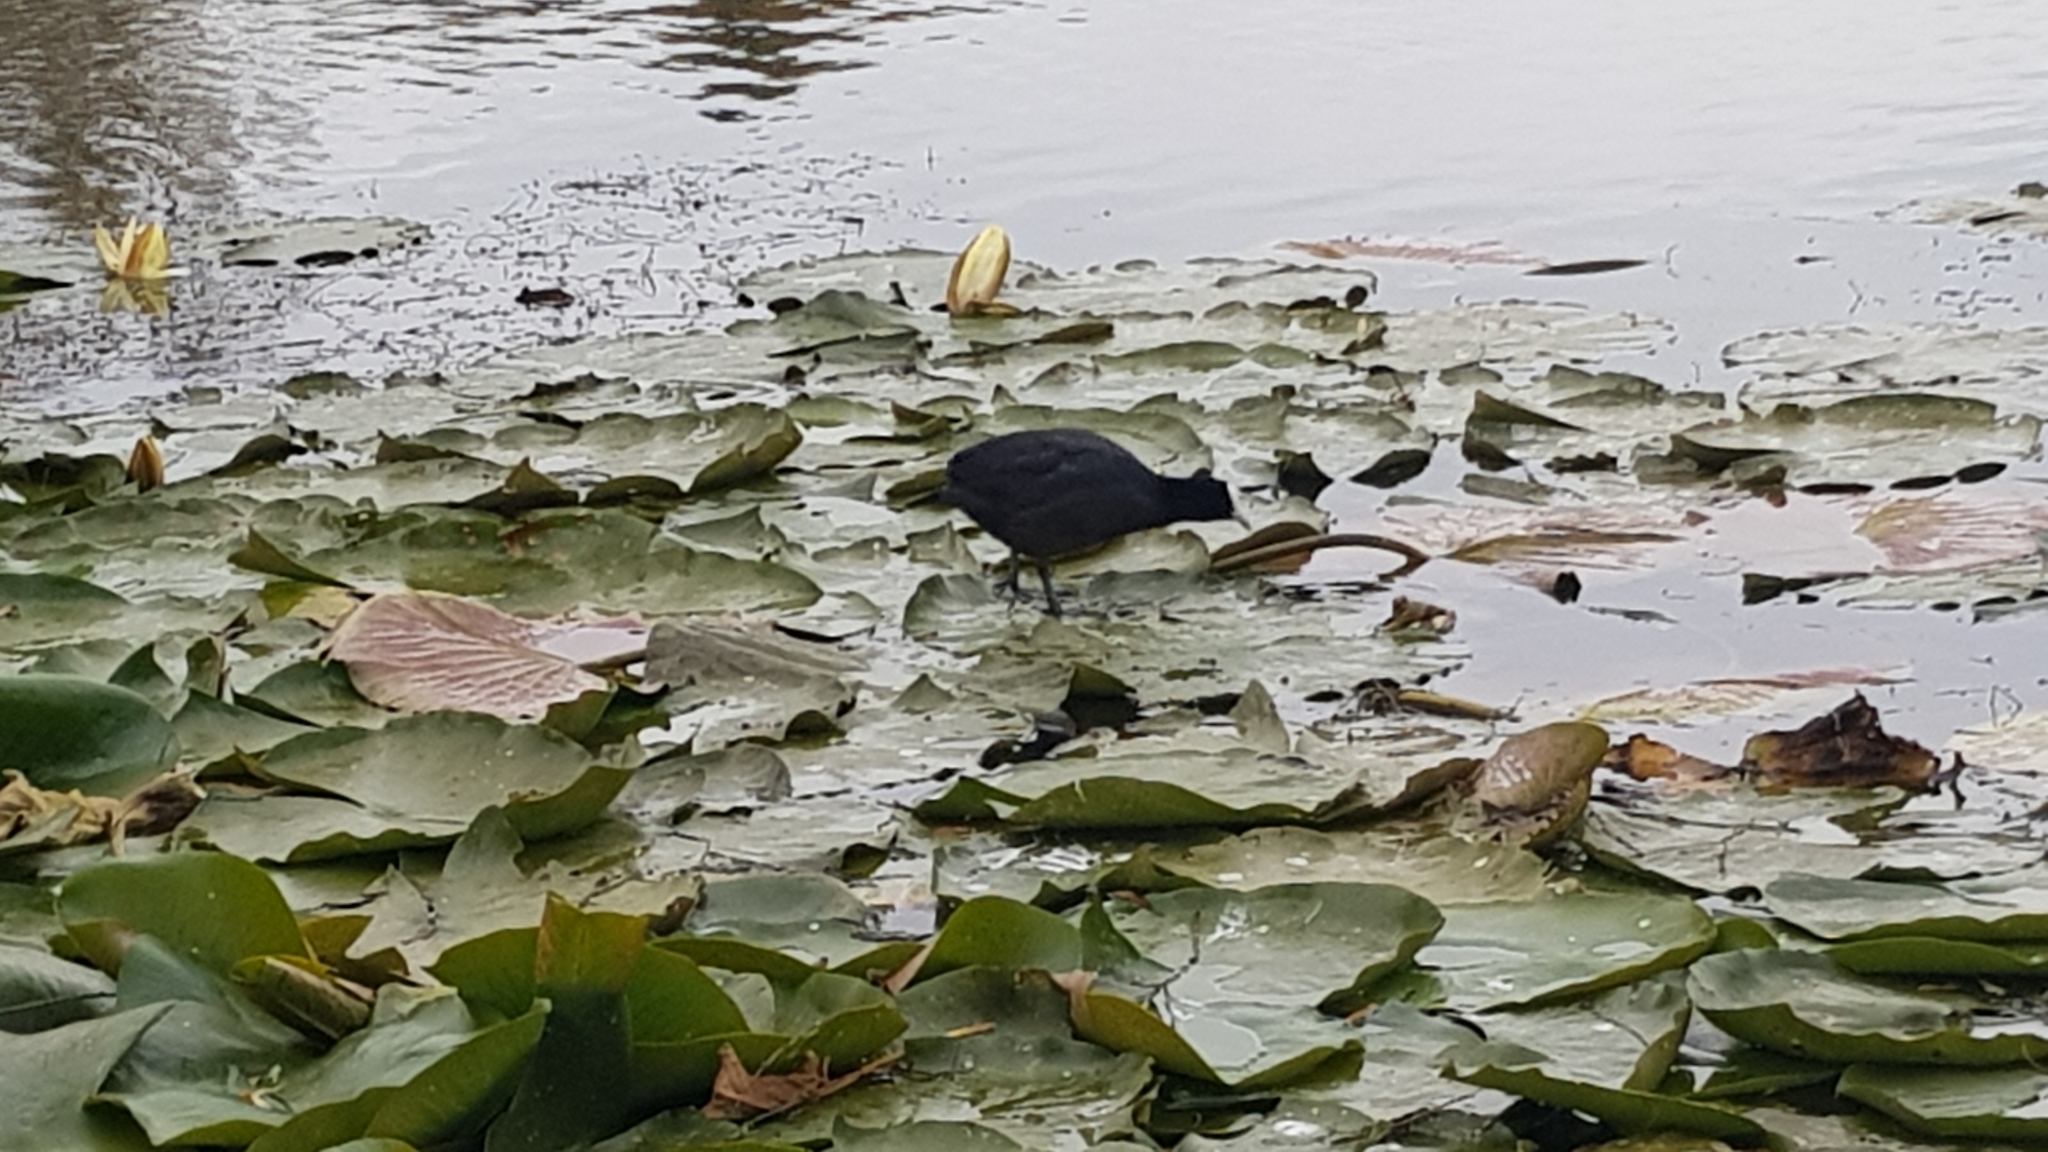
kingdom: Animalia
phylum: Chordata
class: Aves
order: Gruiformes
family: Rallidae
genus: Fulica
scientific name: Fulica atra
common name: Eurasian coot
